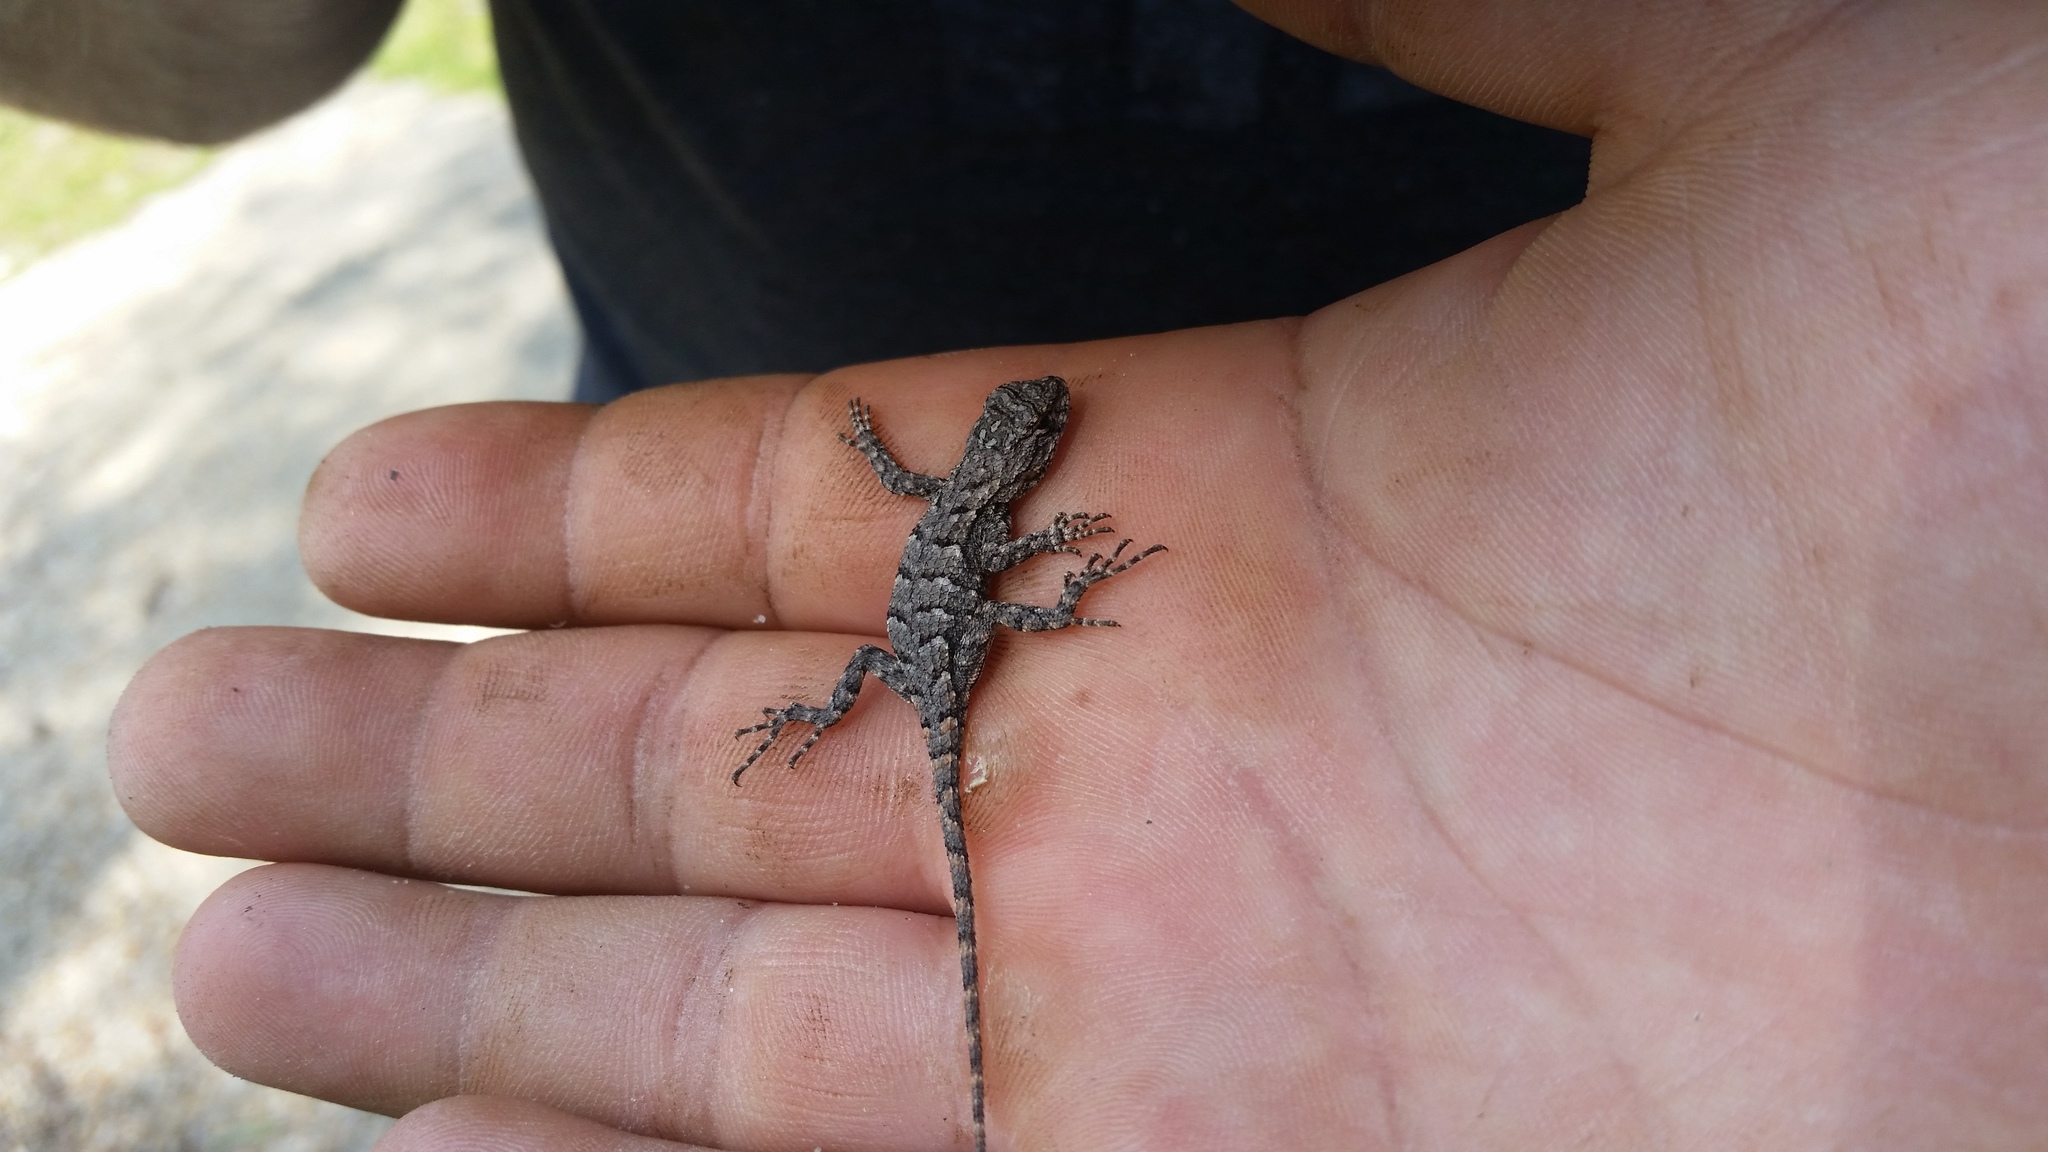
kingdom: Animalia
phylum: Chordata
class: Squamata
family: Phrynosomatidae
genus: Sceloporus
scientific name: Sceloporus undulatus
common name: Eastern fence lizard
